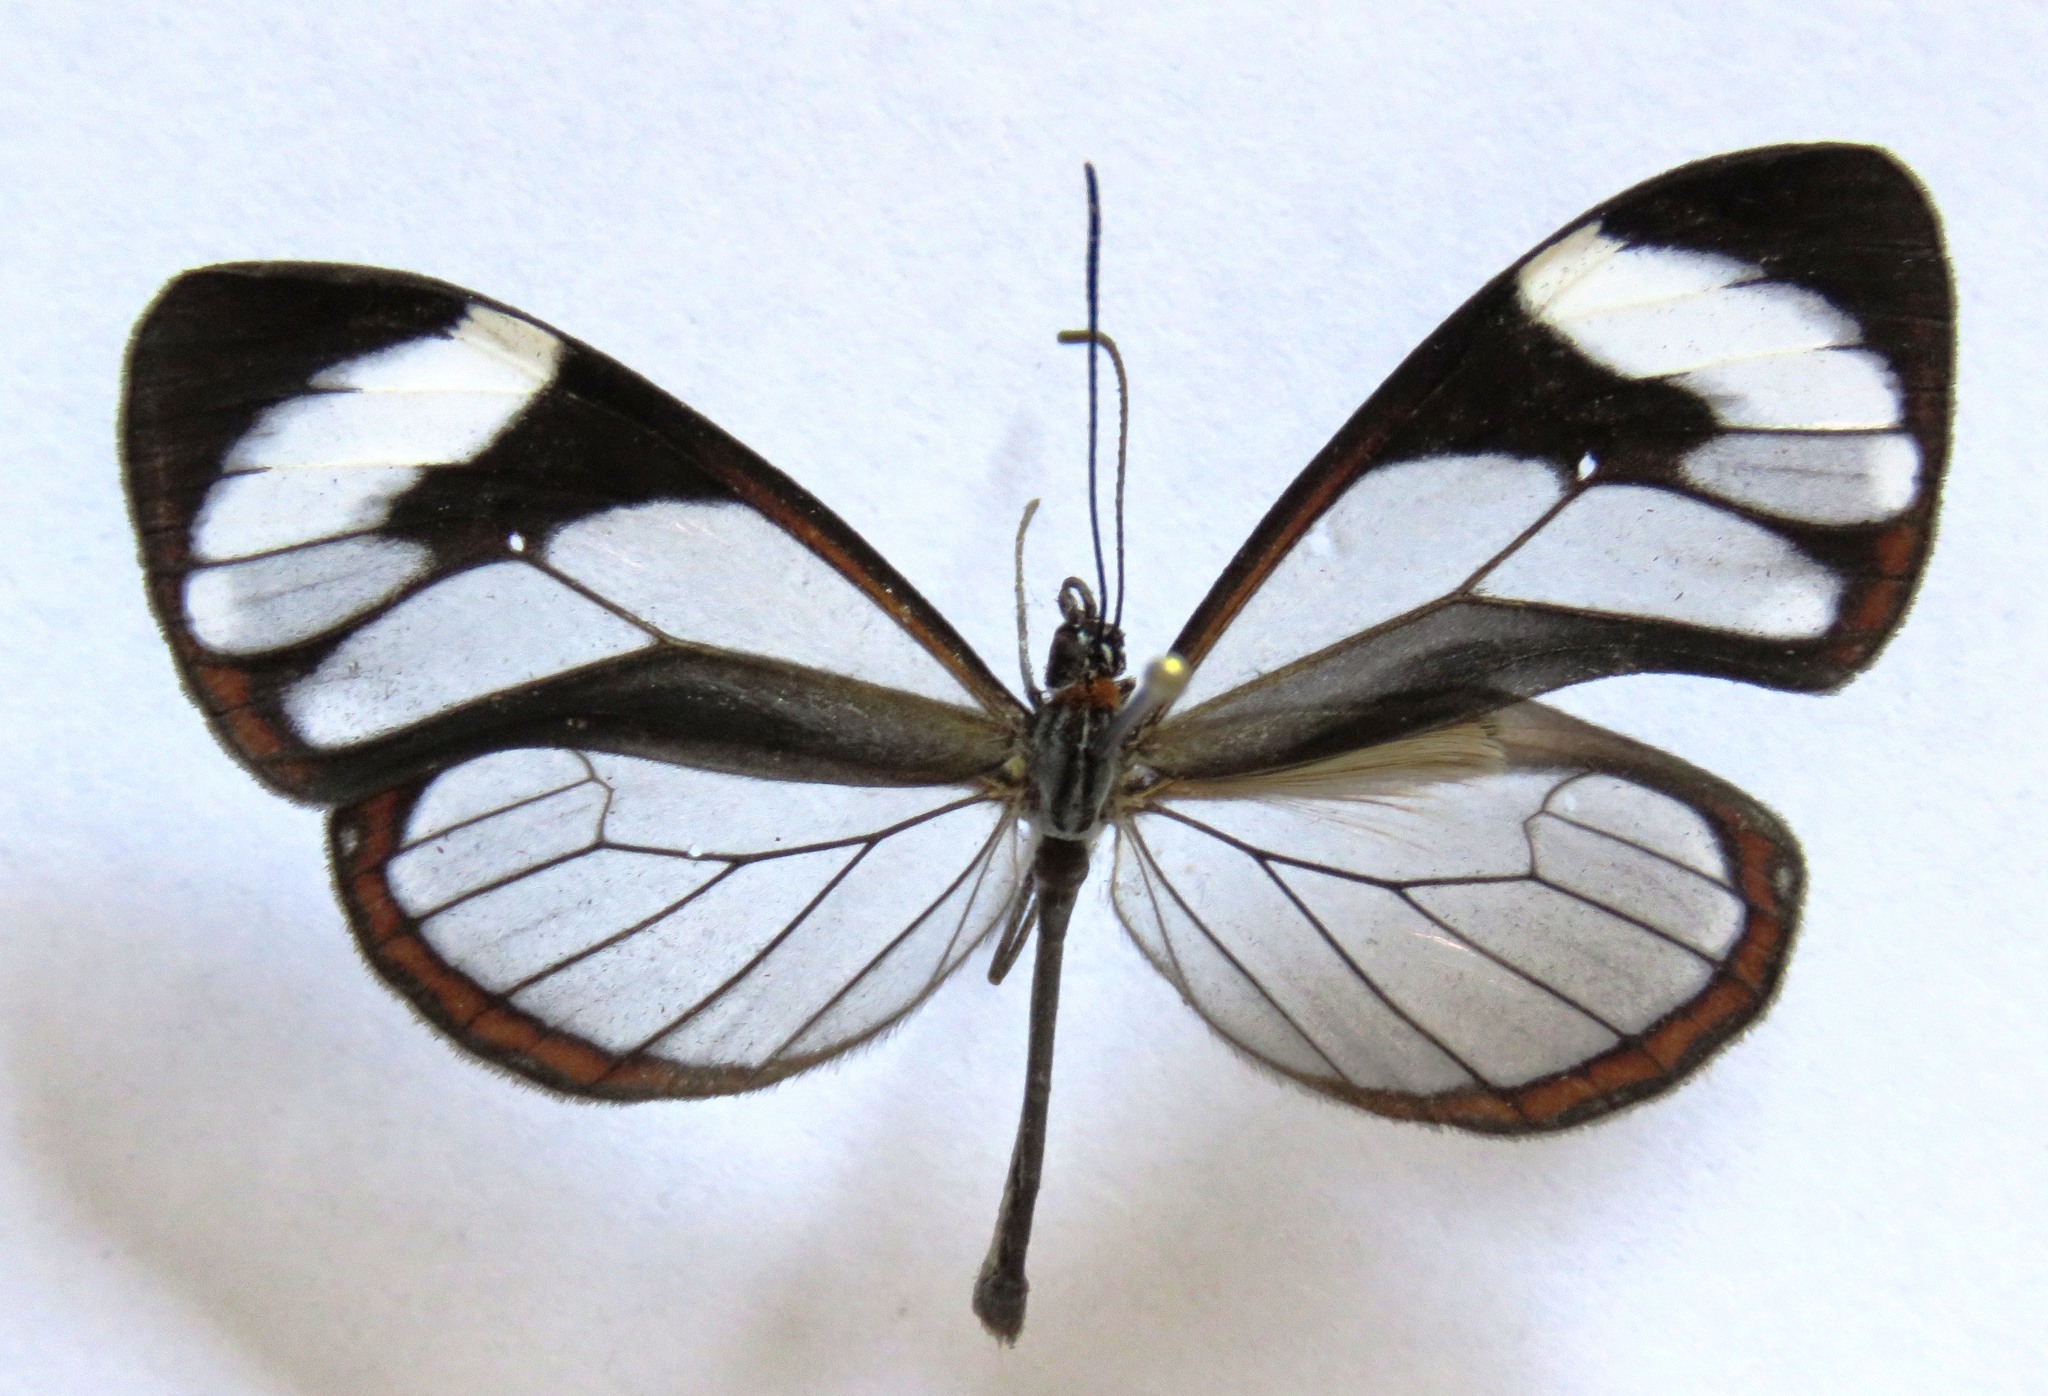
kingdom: Animalia
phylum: Arthropoda
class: Insecta
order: Lepidoptera
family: Nymphalidae
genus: Ithomia
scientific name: Ithomia patilla
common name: Patilla clearwing
